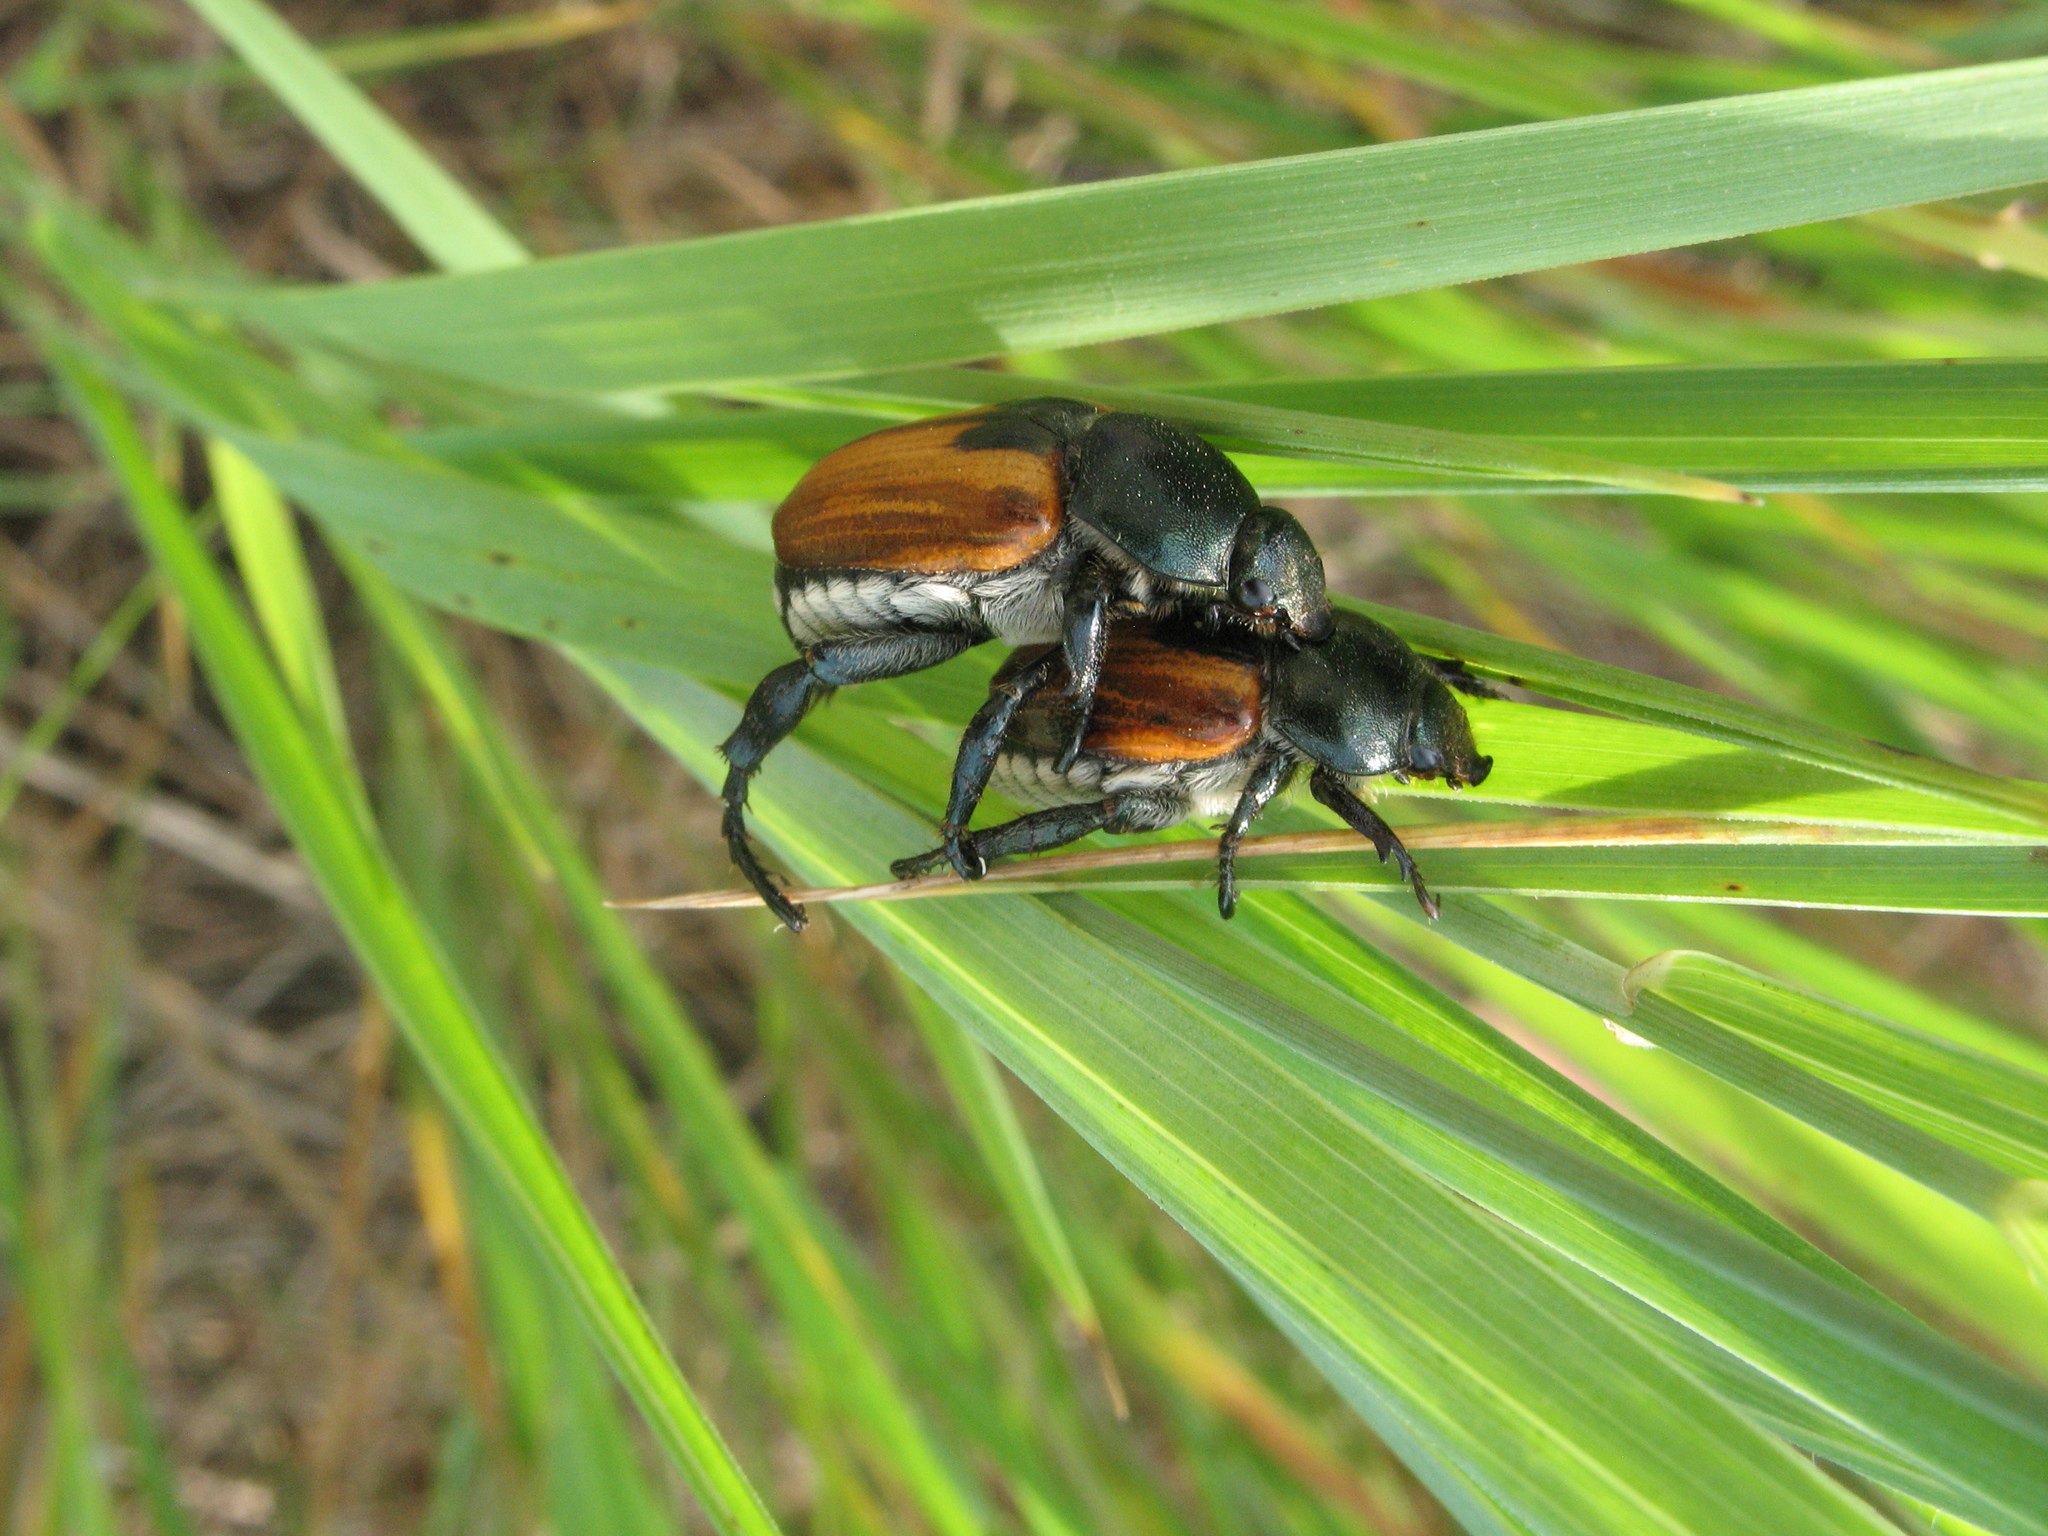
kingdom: Animalia
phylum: Arthropoda
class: Insecta
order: Coleoptera
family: Scarabaeidae
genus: Anisoplia
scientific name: Anisoplia austriaca
